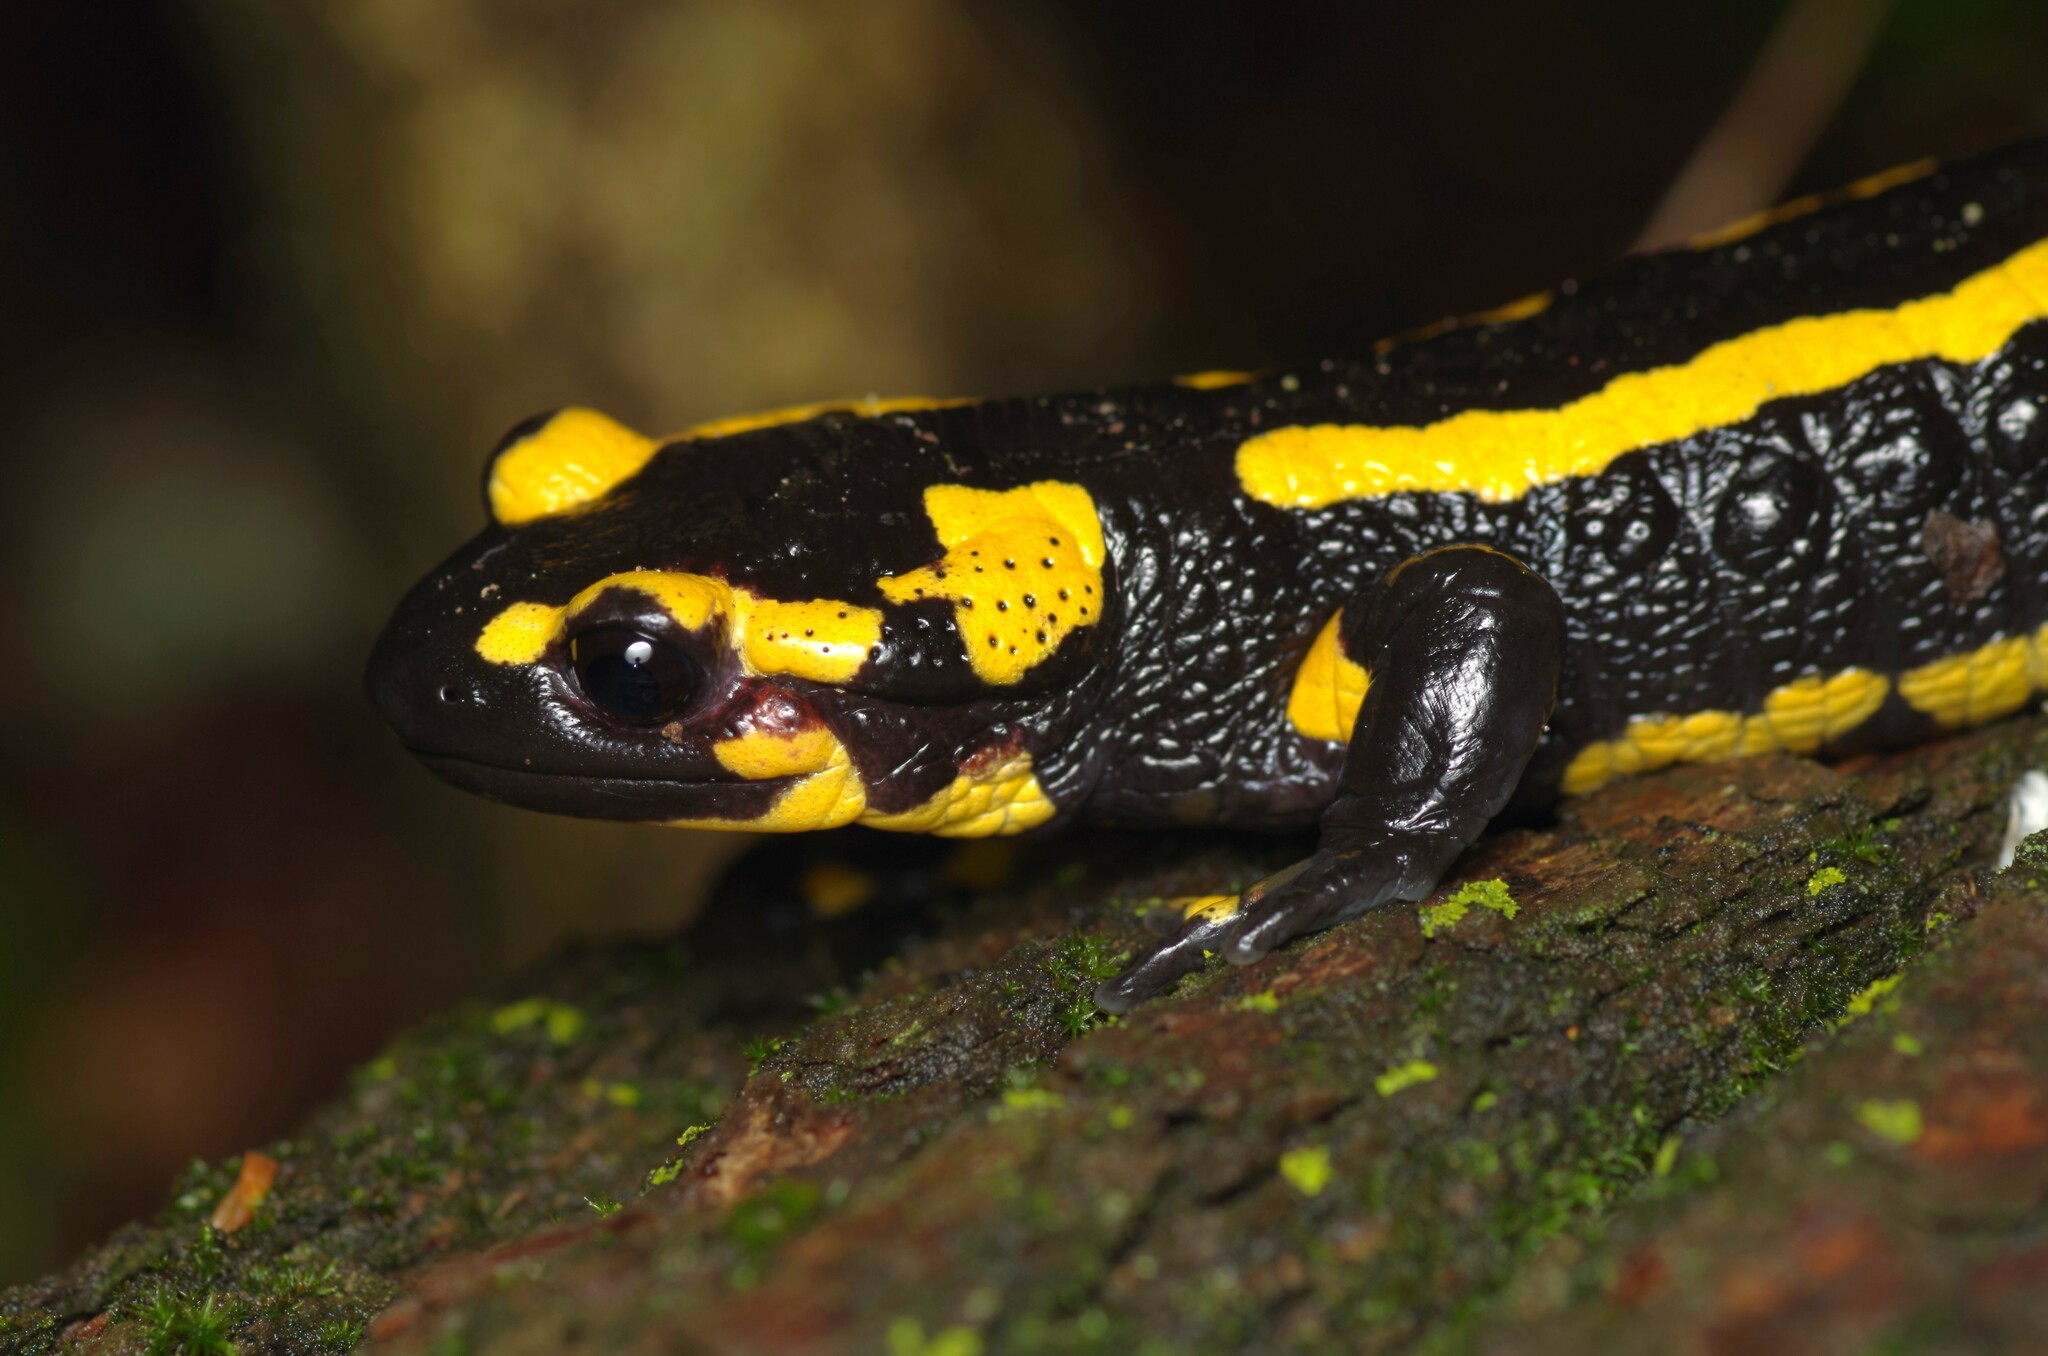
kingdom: Animalia
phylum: Chordata
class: Amphibia
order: Caudata
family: Salamandridae
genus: Salamandra
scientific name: Salamandra salamandra
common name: Fire salamander
